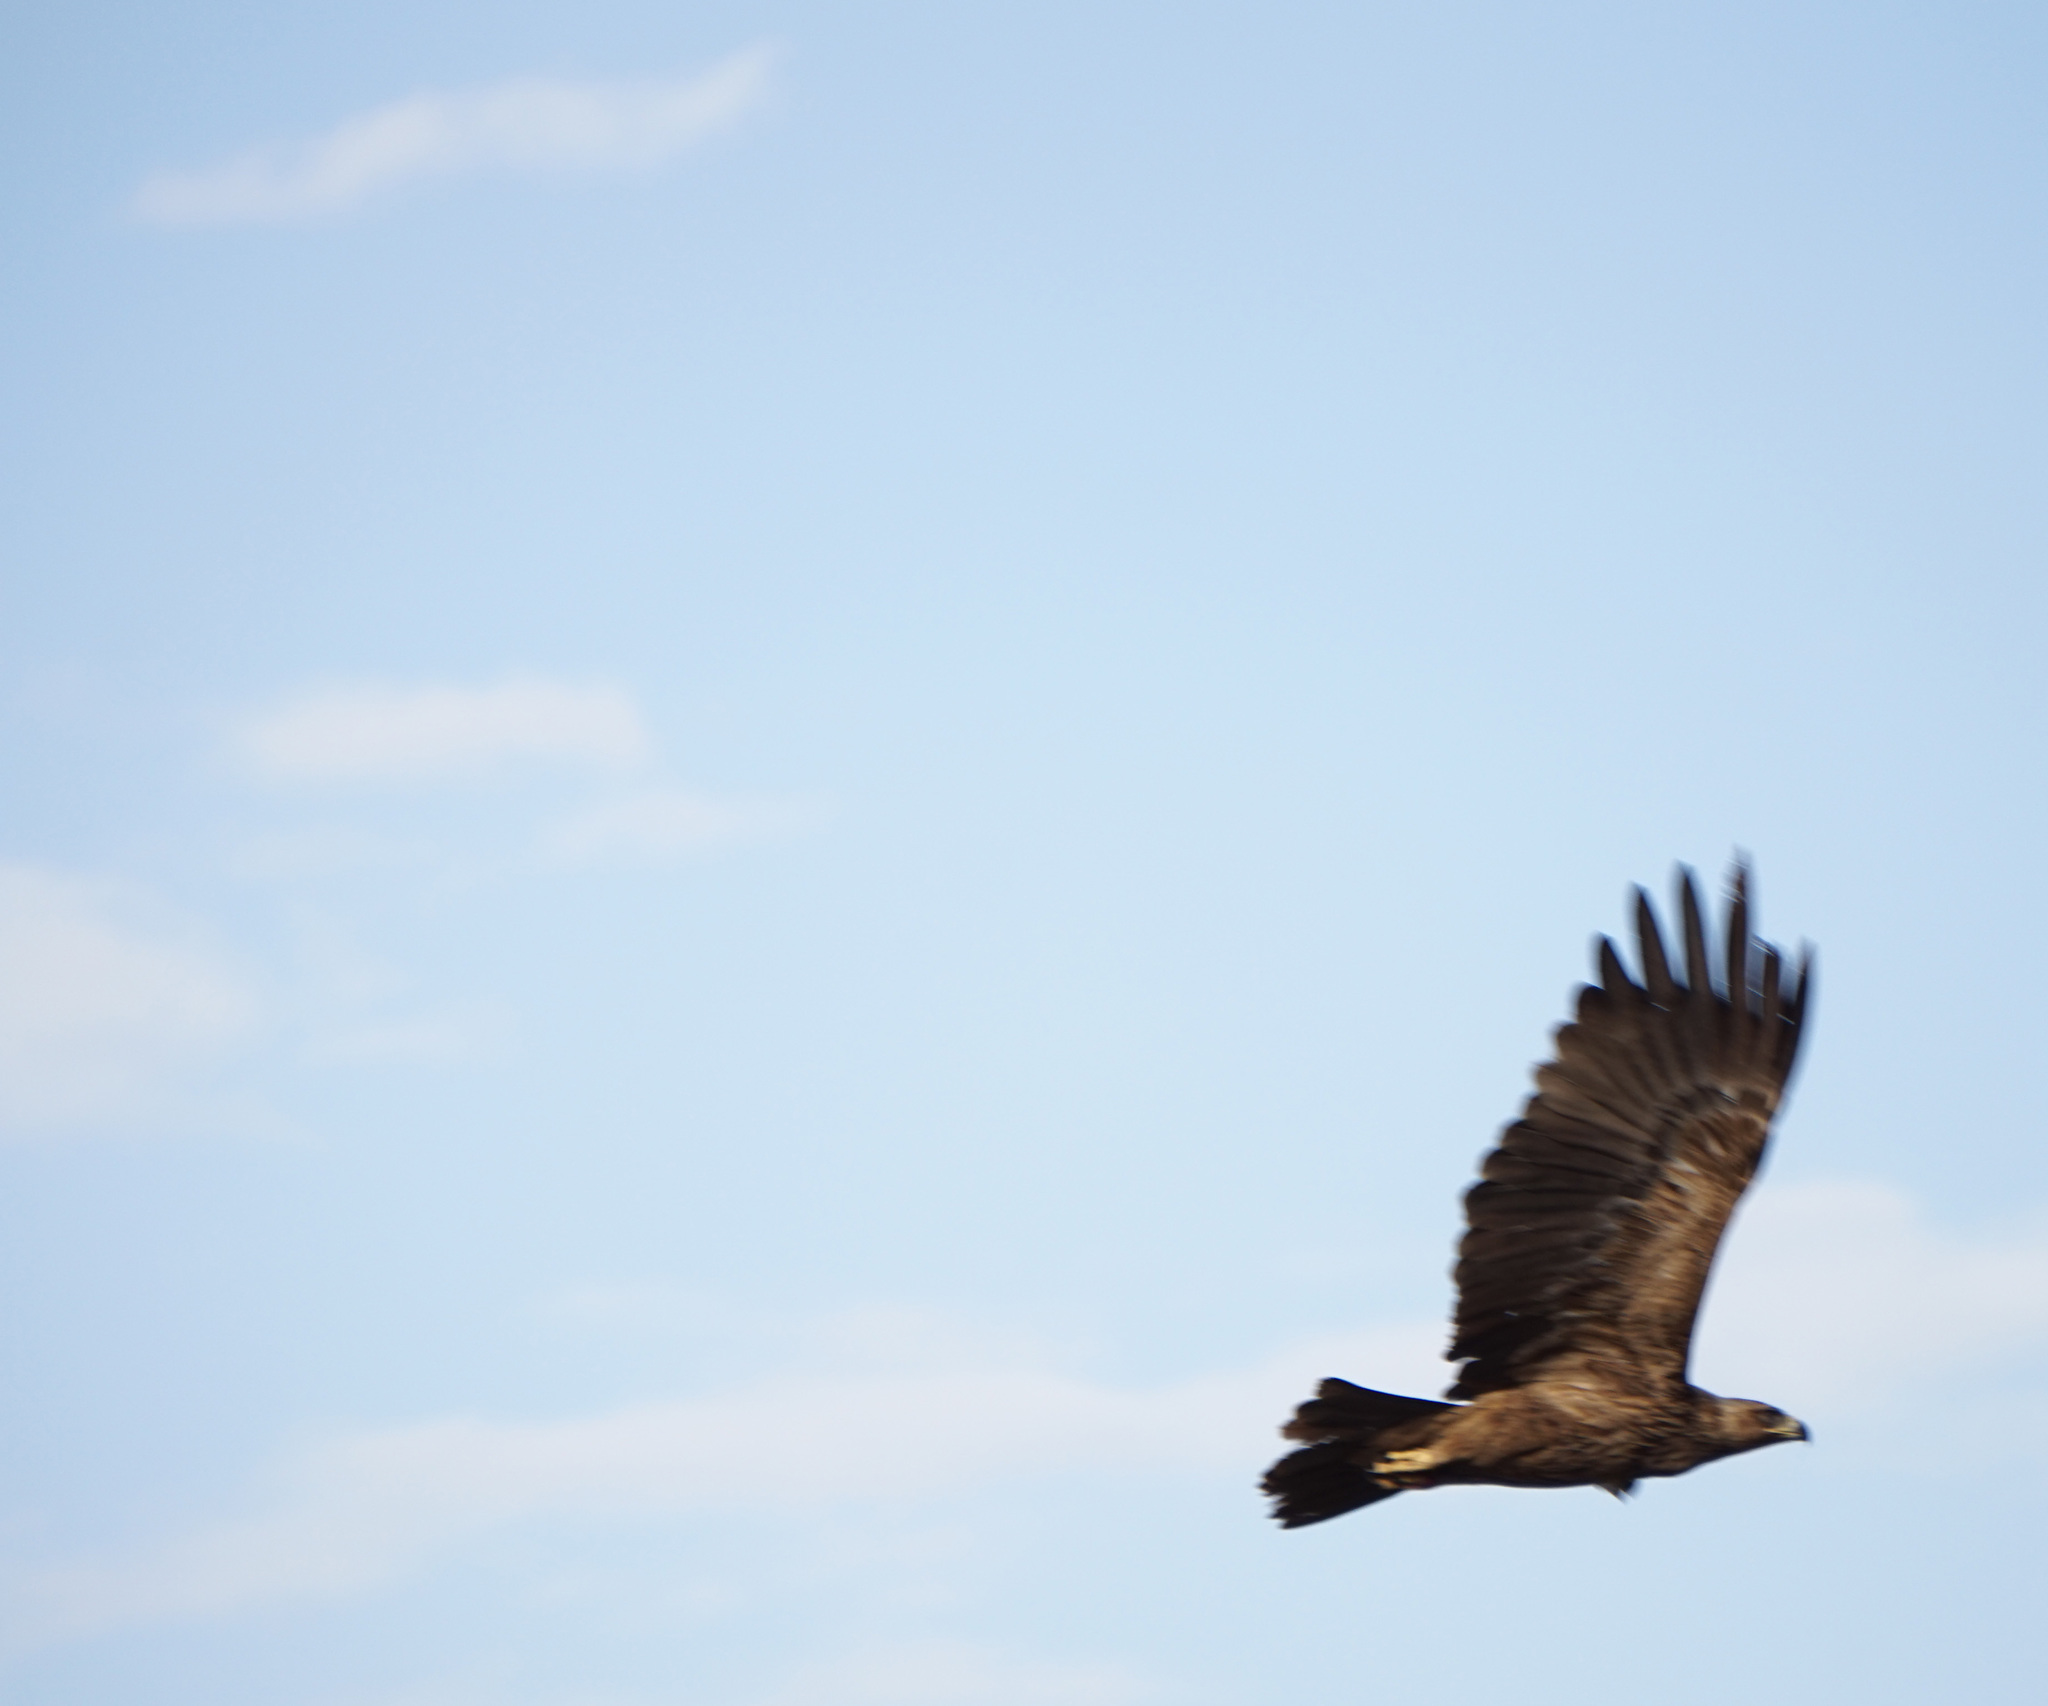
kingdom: Animalia
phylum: Chordata
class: Aves
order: Accipitriformes
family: Accipitridae
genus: Aquila
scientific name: Aquila heliaca
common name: Eastern imperial eagle
